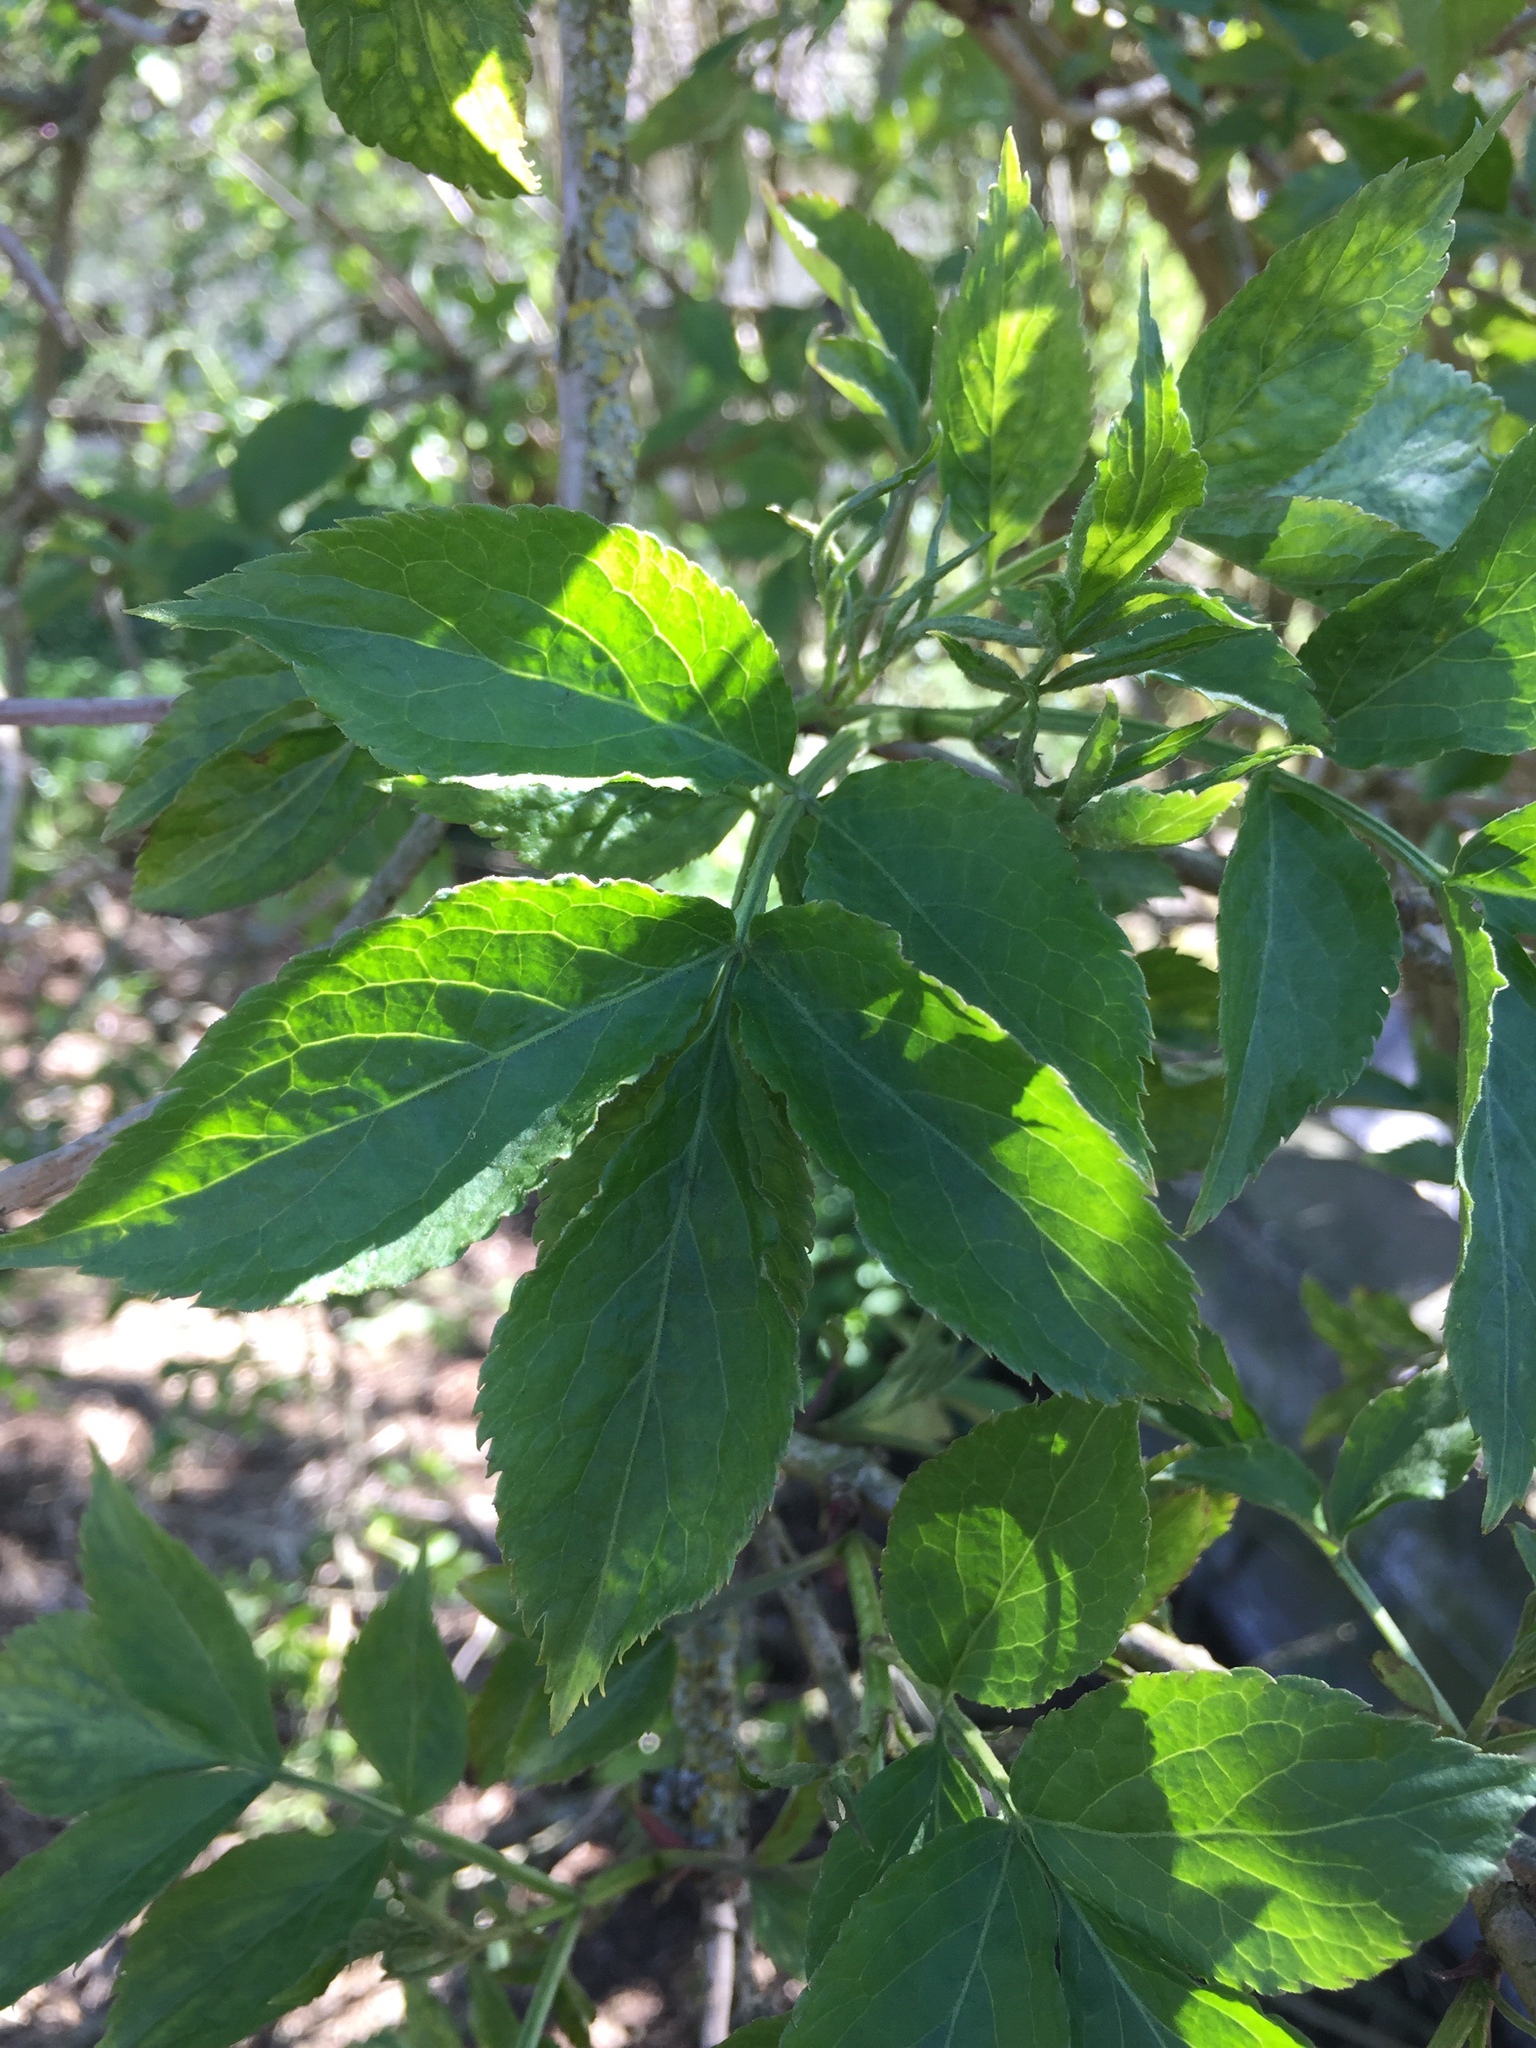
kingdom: Plantae
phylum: Tracheophyta
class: Magnoliopsida
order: Dipsacales
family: Viburnaceae
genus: Sambucus
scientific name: Sambucus nigra
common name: Elder
